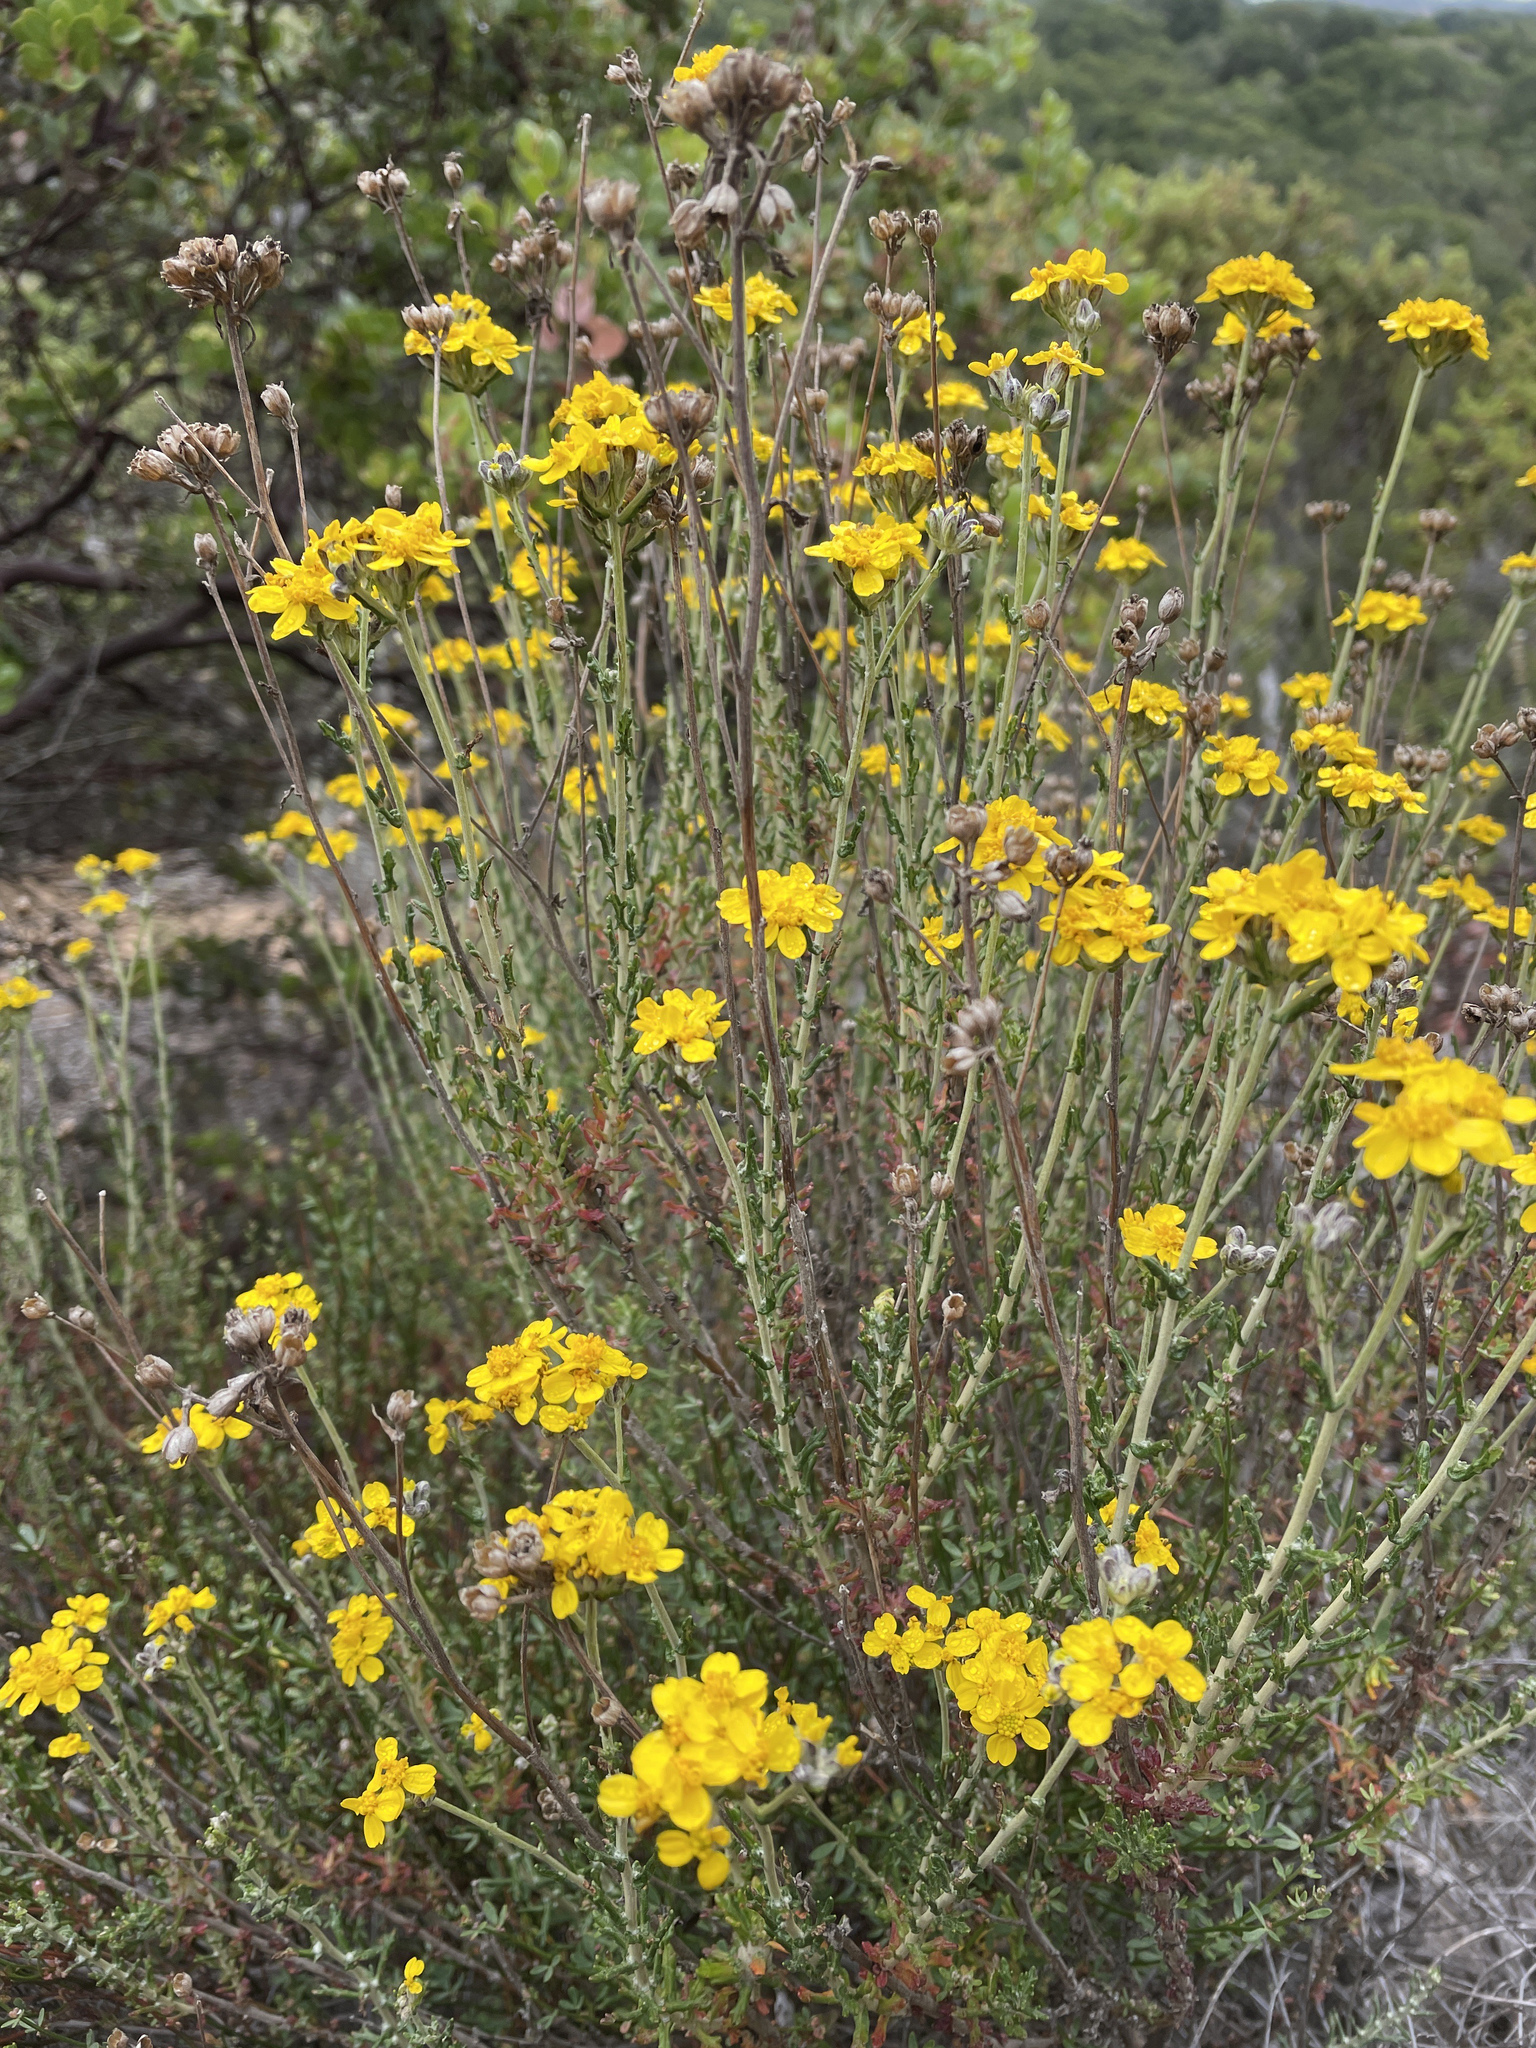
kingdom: Plantae
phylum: Tracheophyta
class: Magnoliopsida
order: Asterales
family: Asteraceae
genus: Eriophyllum
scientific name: Eriophyllum confertiflorum
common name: Golden-yarrow
